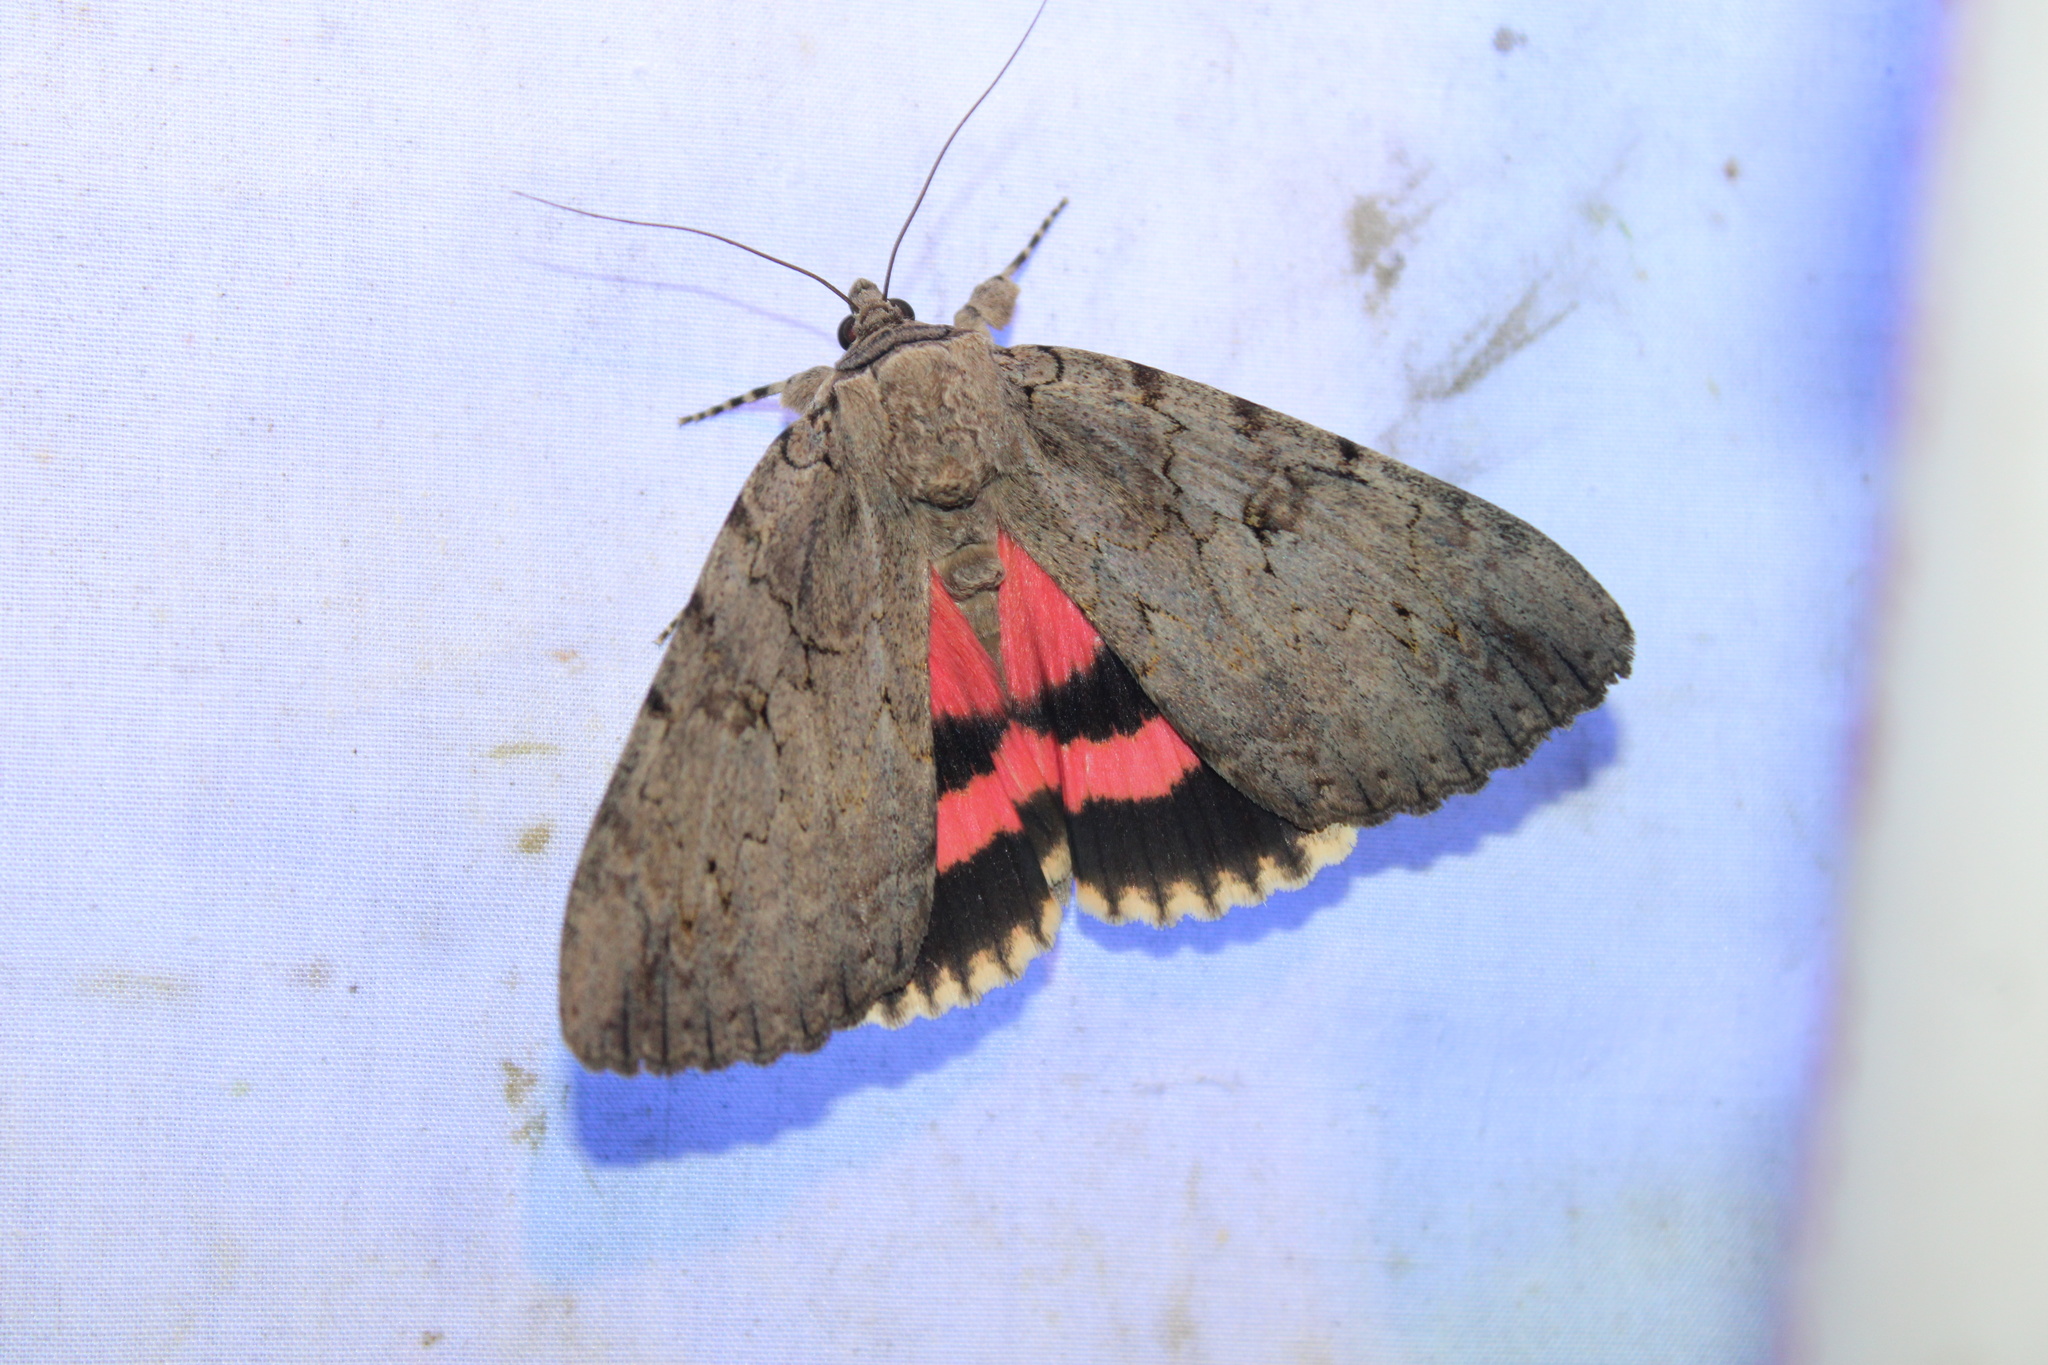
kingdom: Animalia
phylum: Arthropoda
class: Insecta
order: Lepidoptera
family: Erebidae
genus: Catocala
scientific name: Catocala amatrix
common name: Sweetheart underwing
